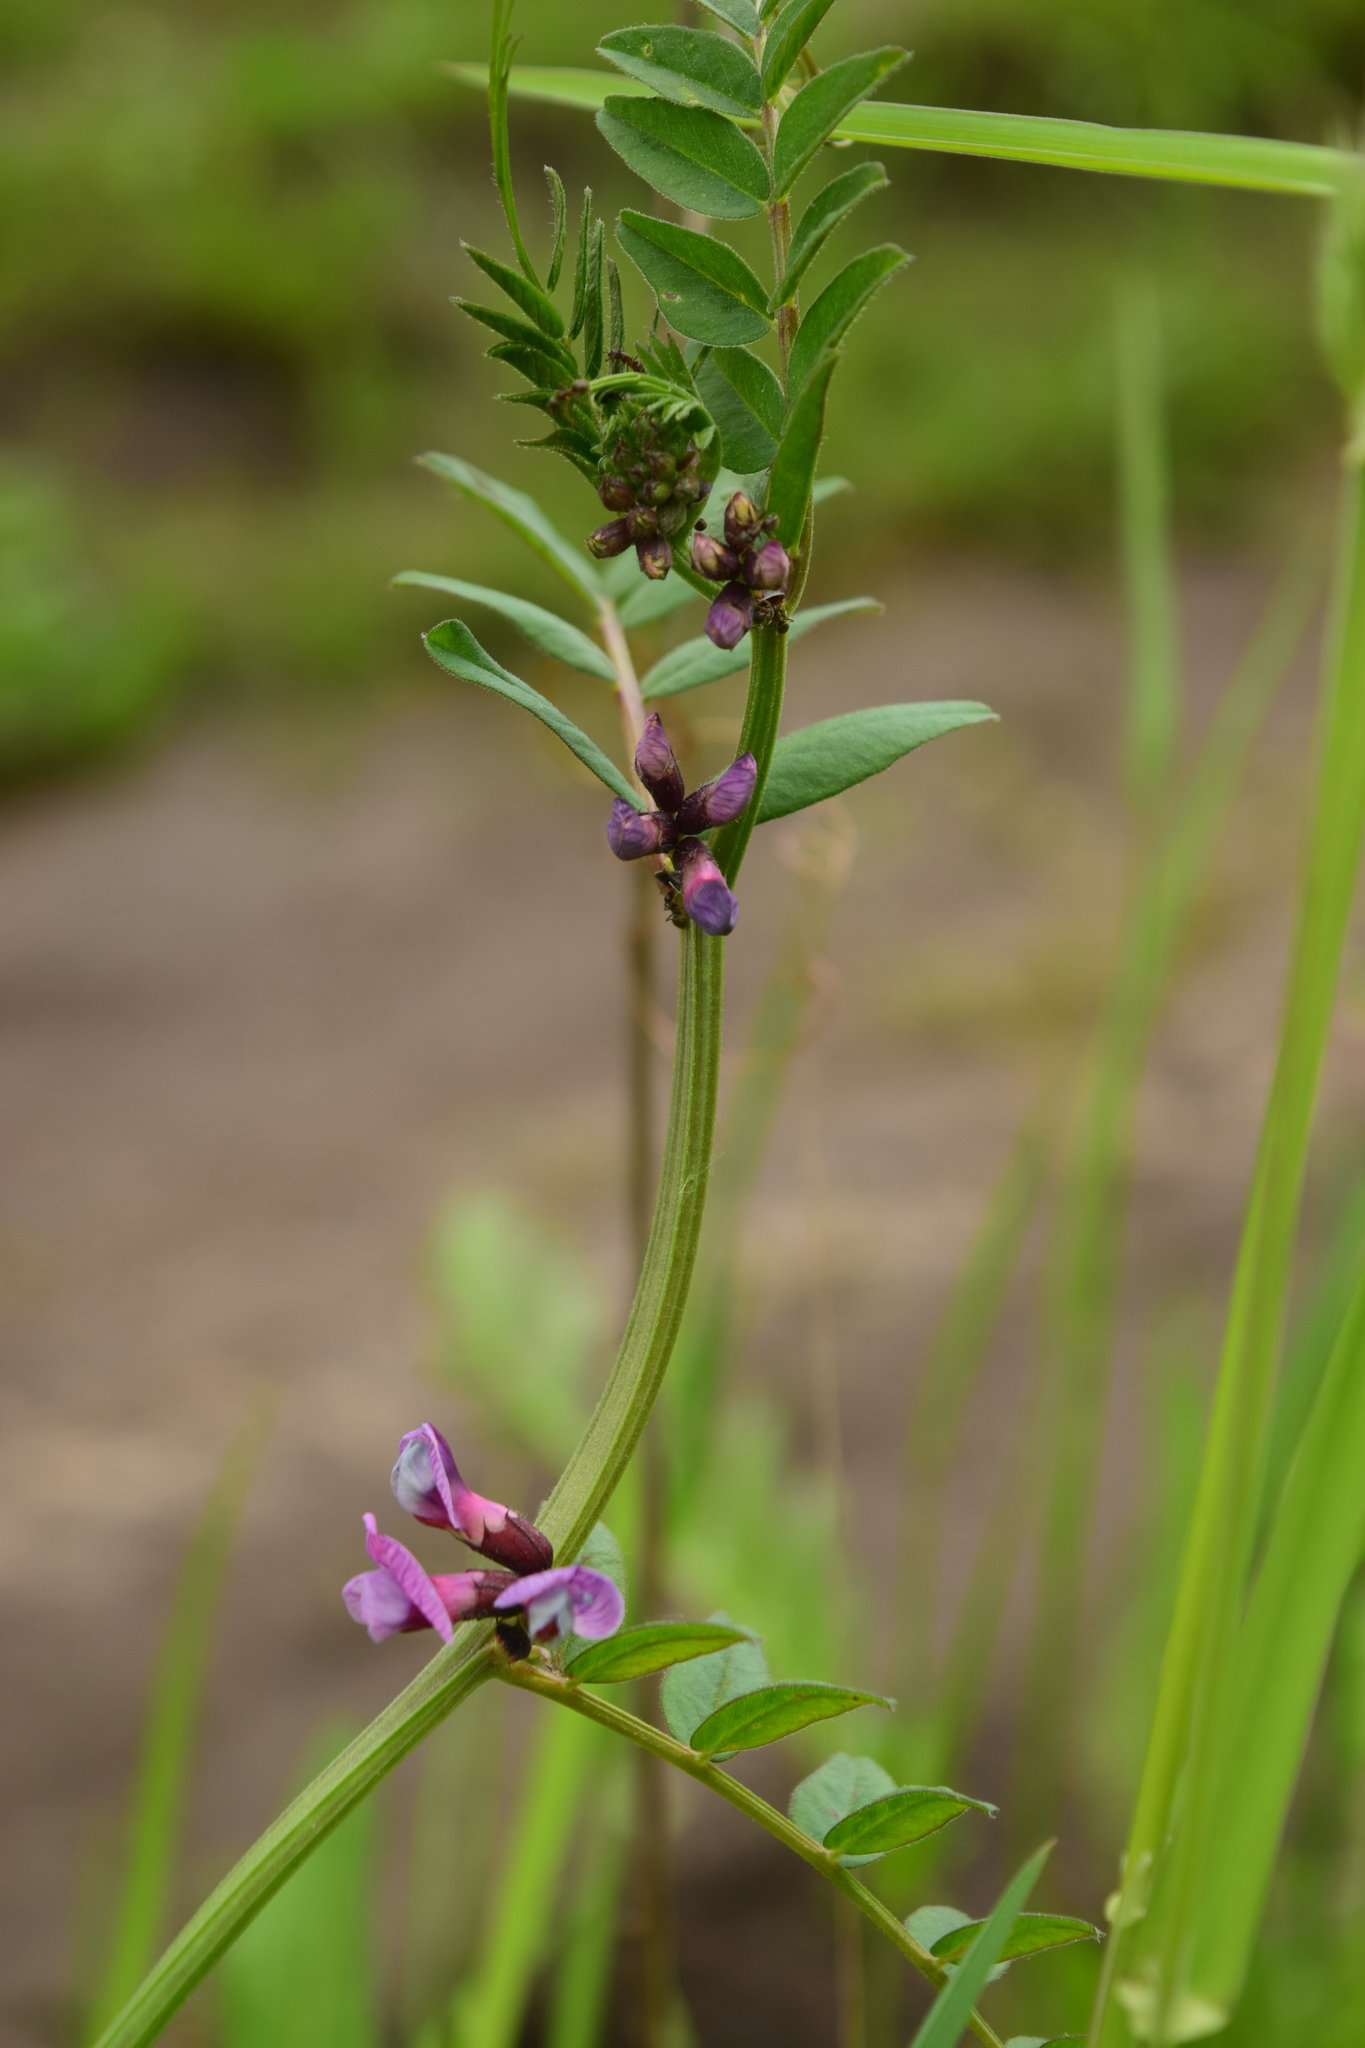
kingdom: Plantae
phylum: Tracheophyta
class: Magnoliopsida
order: Fabales
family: Fabaceae
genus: Vicia
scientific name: Vicia sepium
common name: Bush vetch
